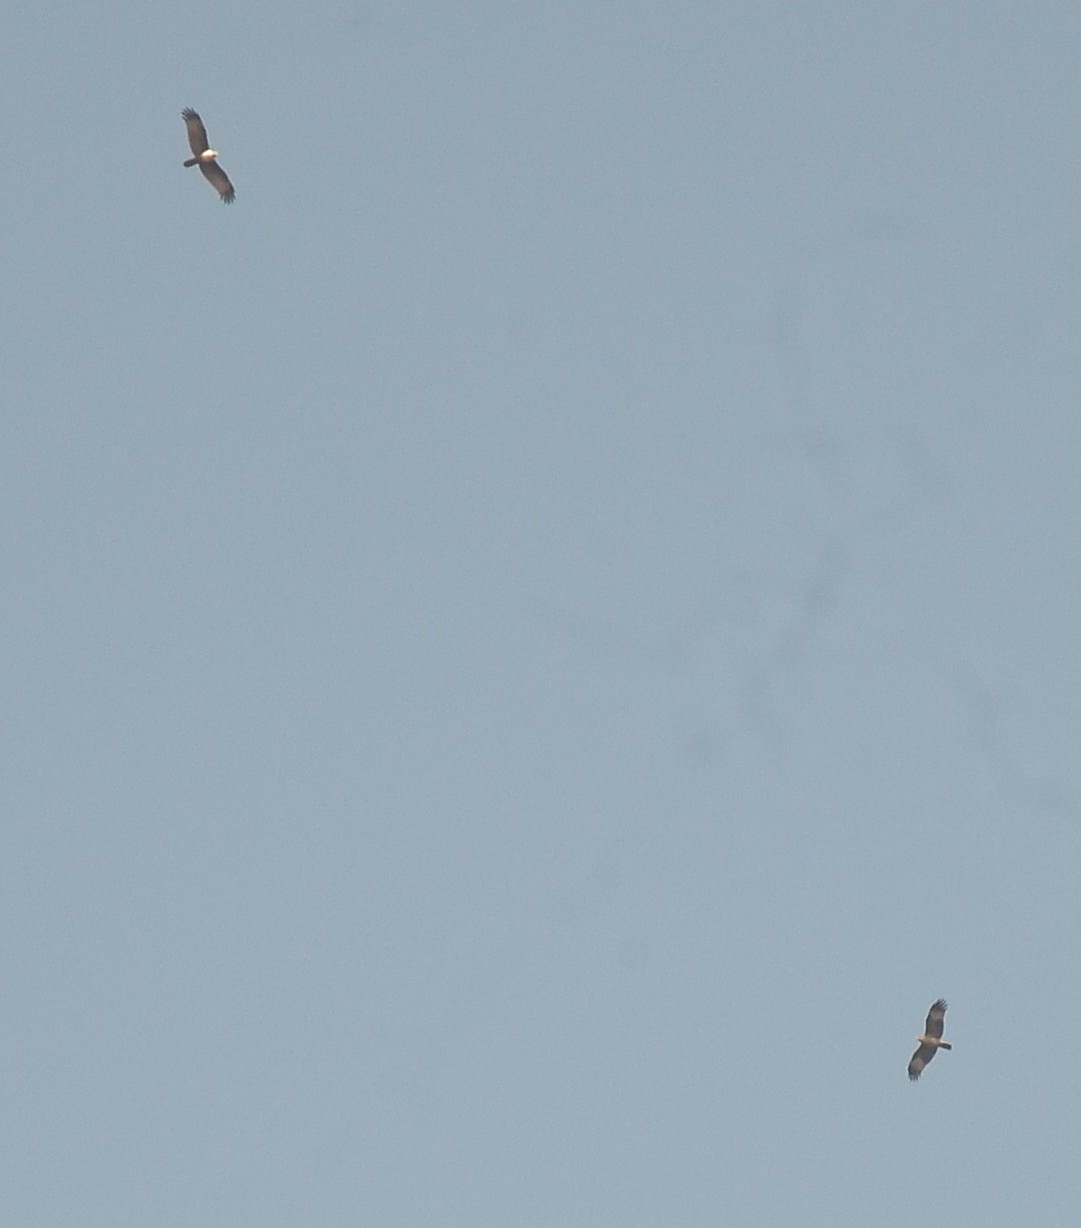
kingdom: Animalia
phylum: Chordata
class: Aves
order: Accipitriformes
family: Accipitridae
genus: Haliastur
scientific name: Haliastur indus
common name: Brahminy kite
